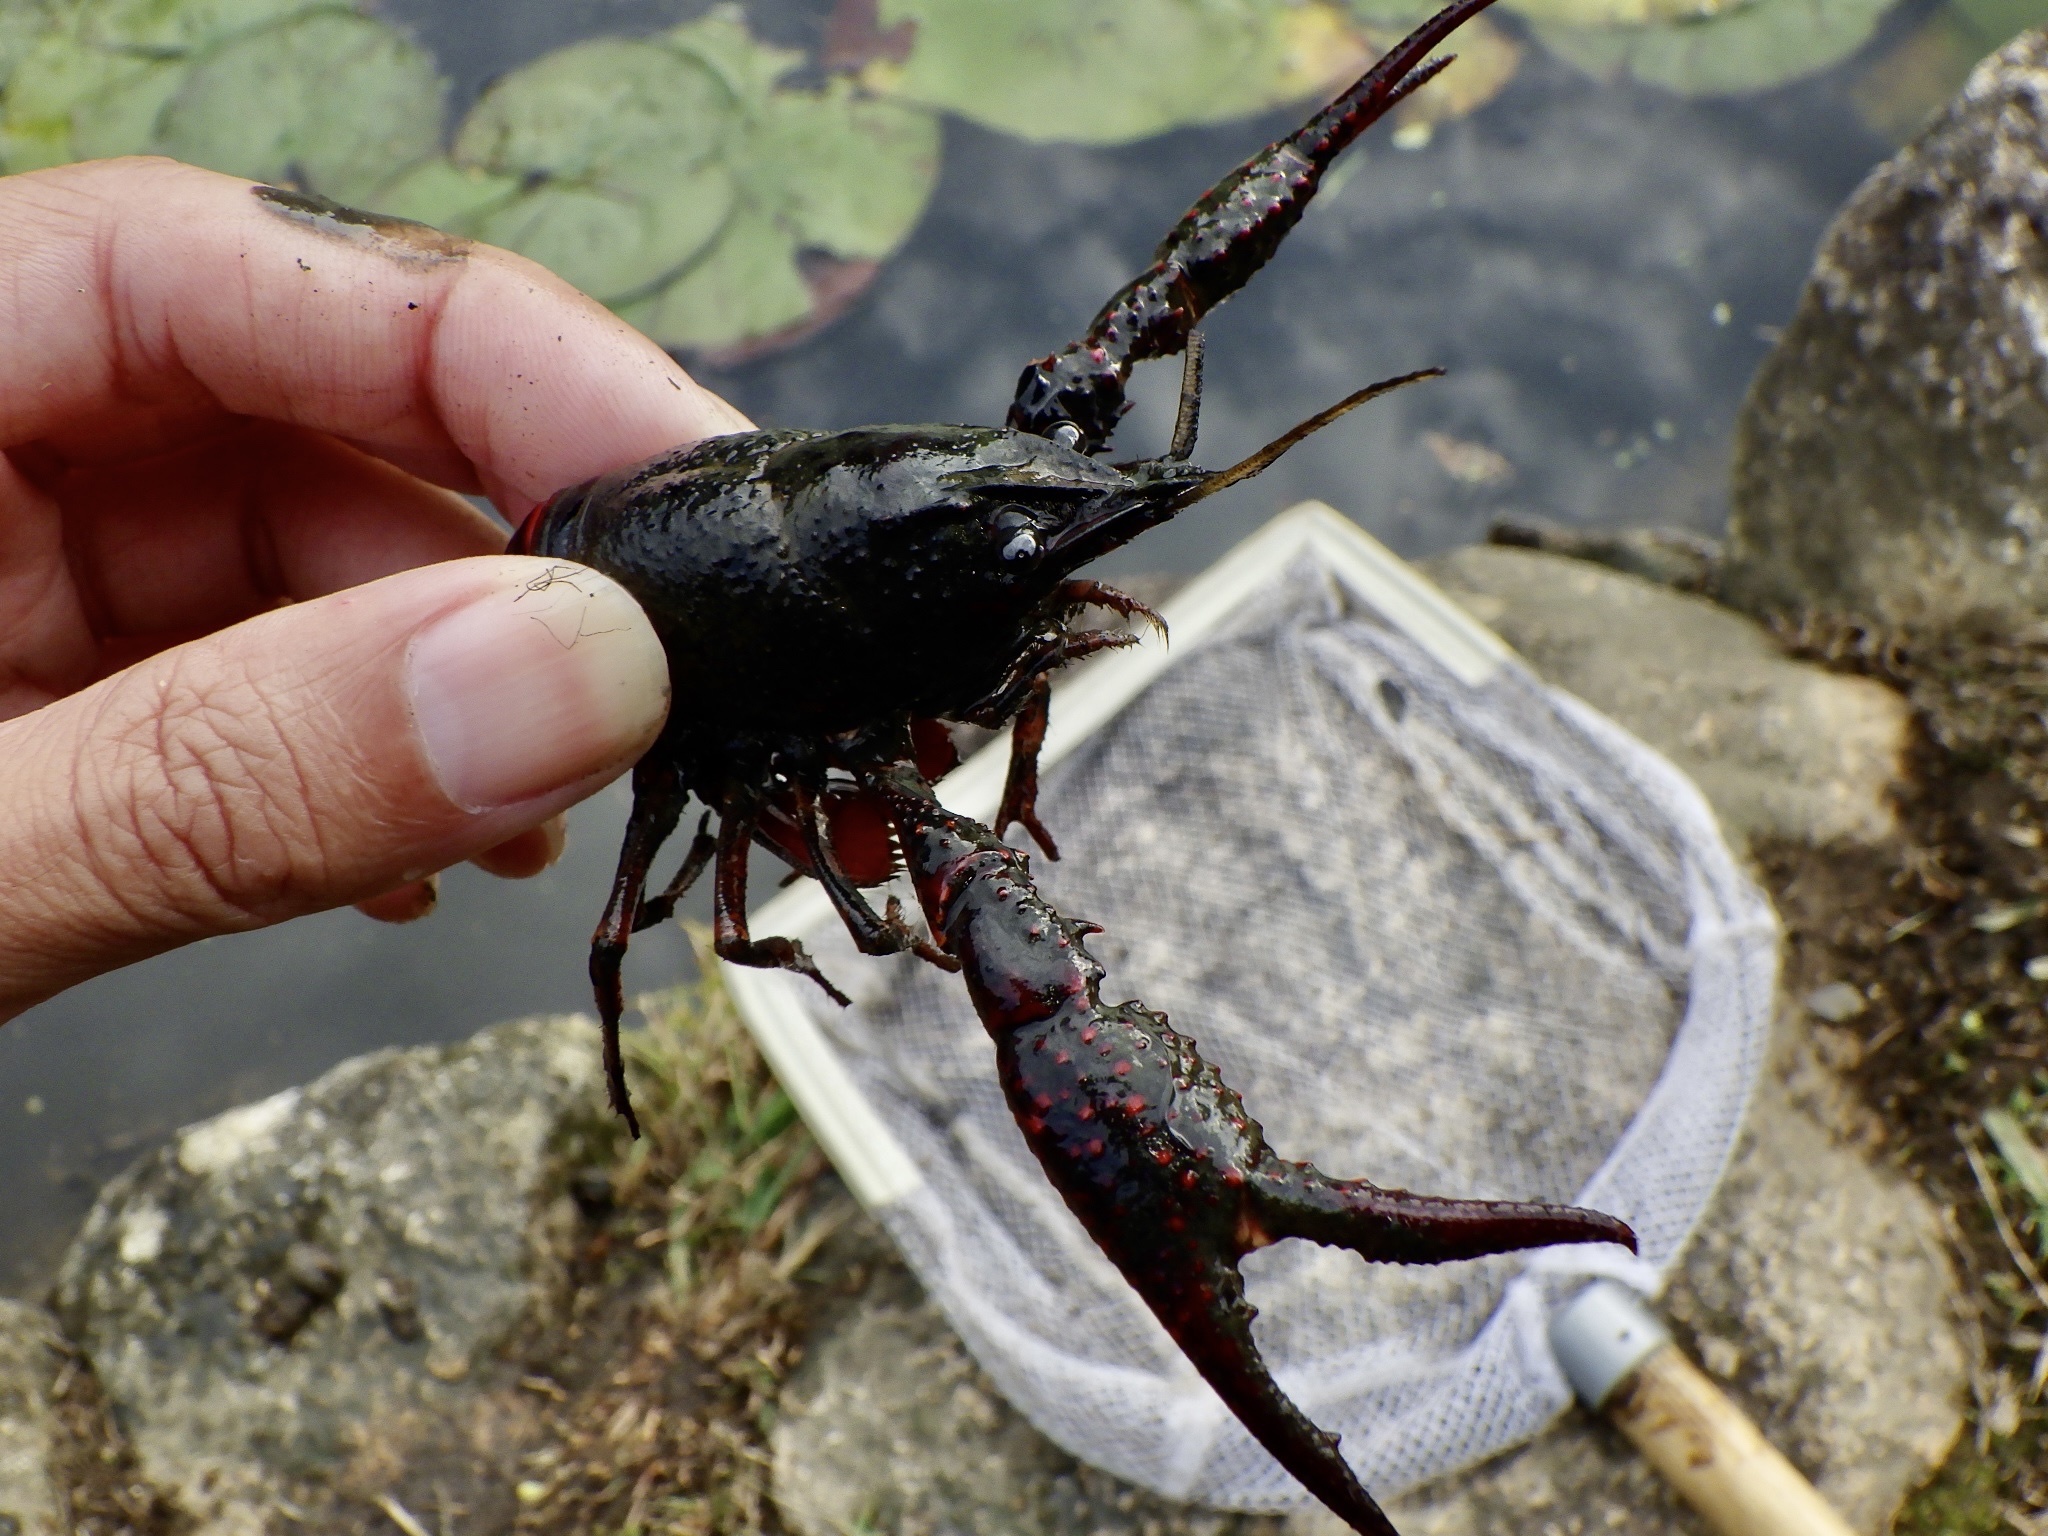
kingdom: Animalia
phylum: Arthropoda
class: Malacostraca
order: Decapoda
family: Cambaridae
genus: Procambarus
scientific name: Procambarus clarkii
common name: Red swamp crayfish
